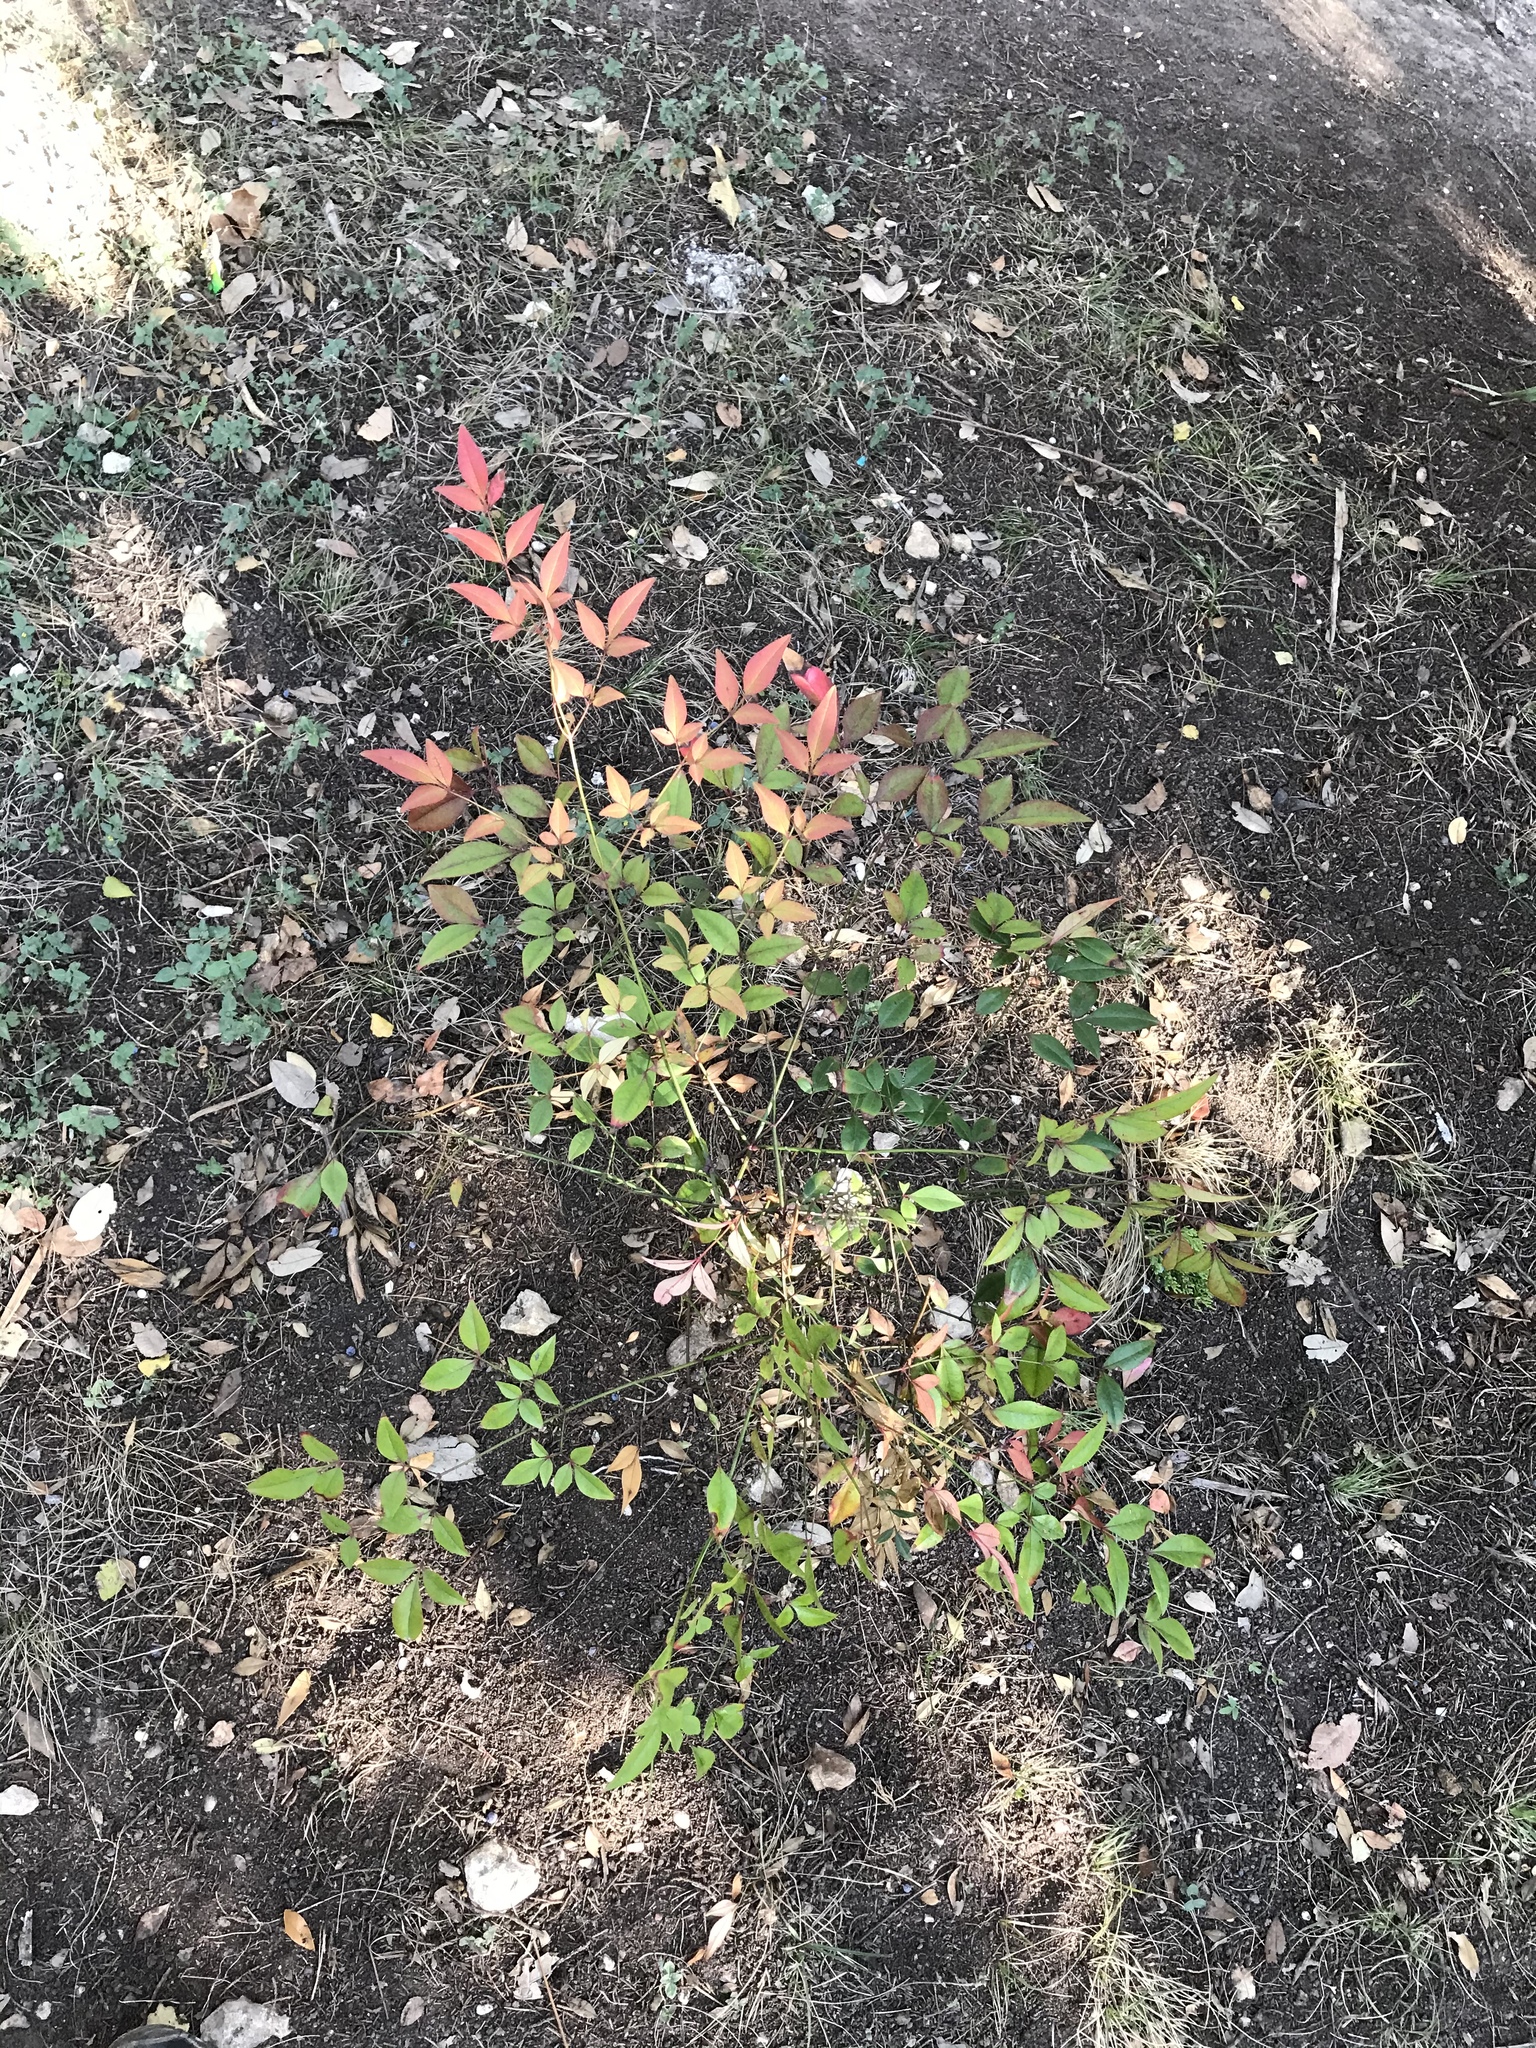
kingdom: Plantae
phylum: Tracheophyta
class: Magnoliopsida
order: Ranunculales
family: Berberidaceae
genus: Nandina
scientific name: Nandina domestica
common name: Sacred bamboo
